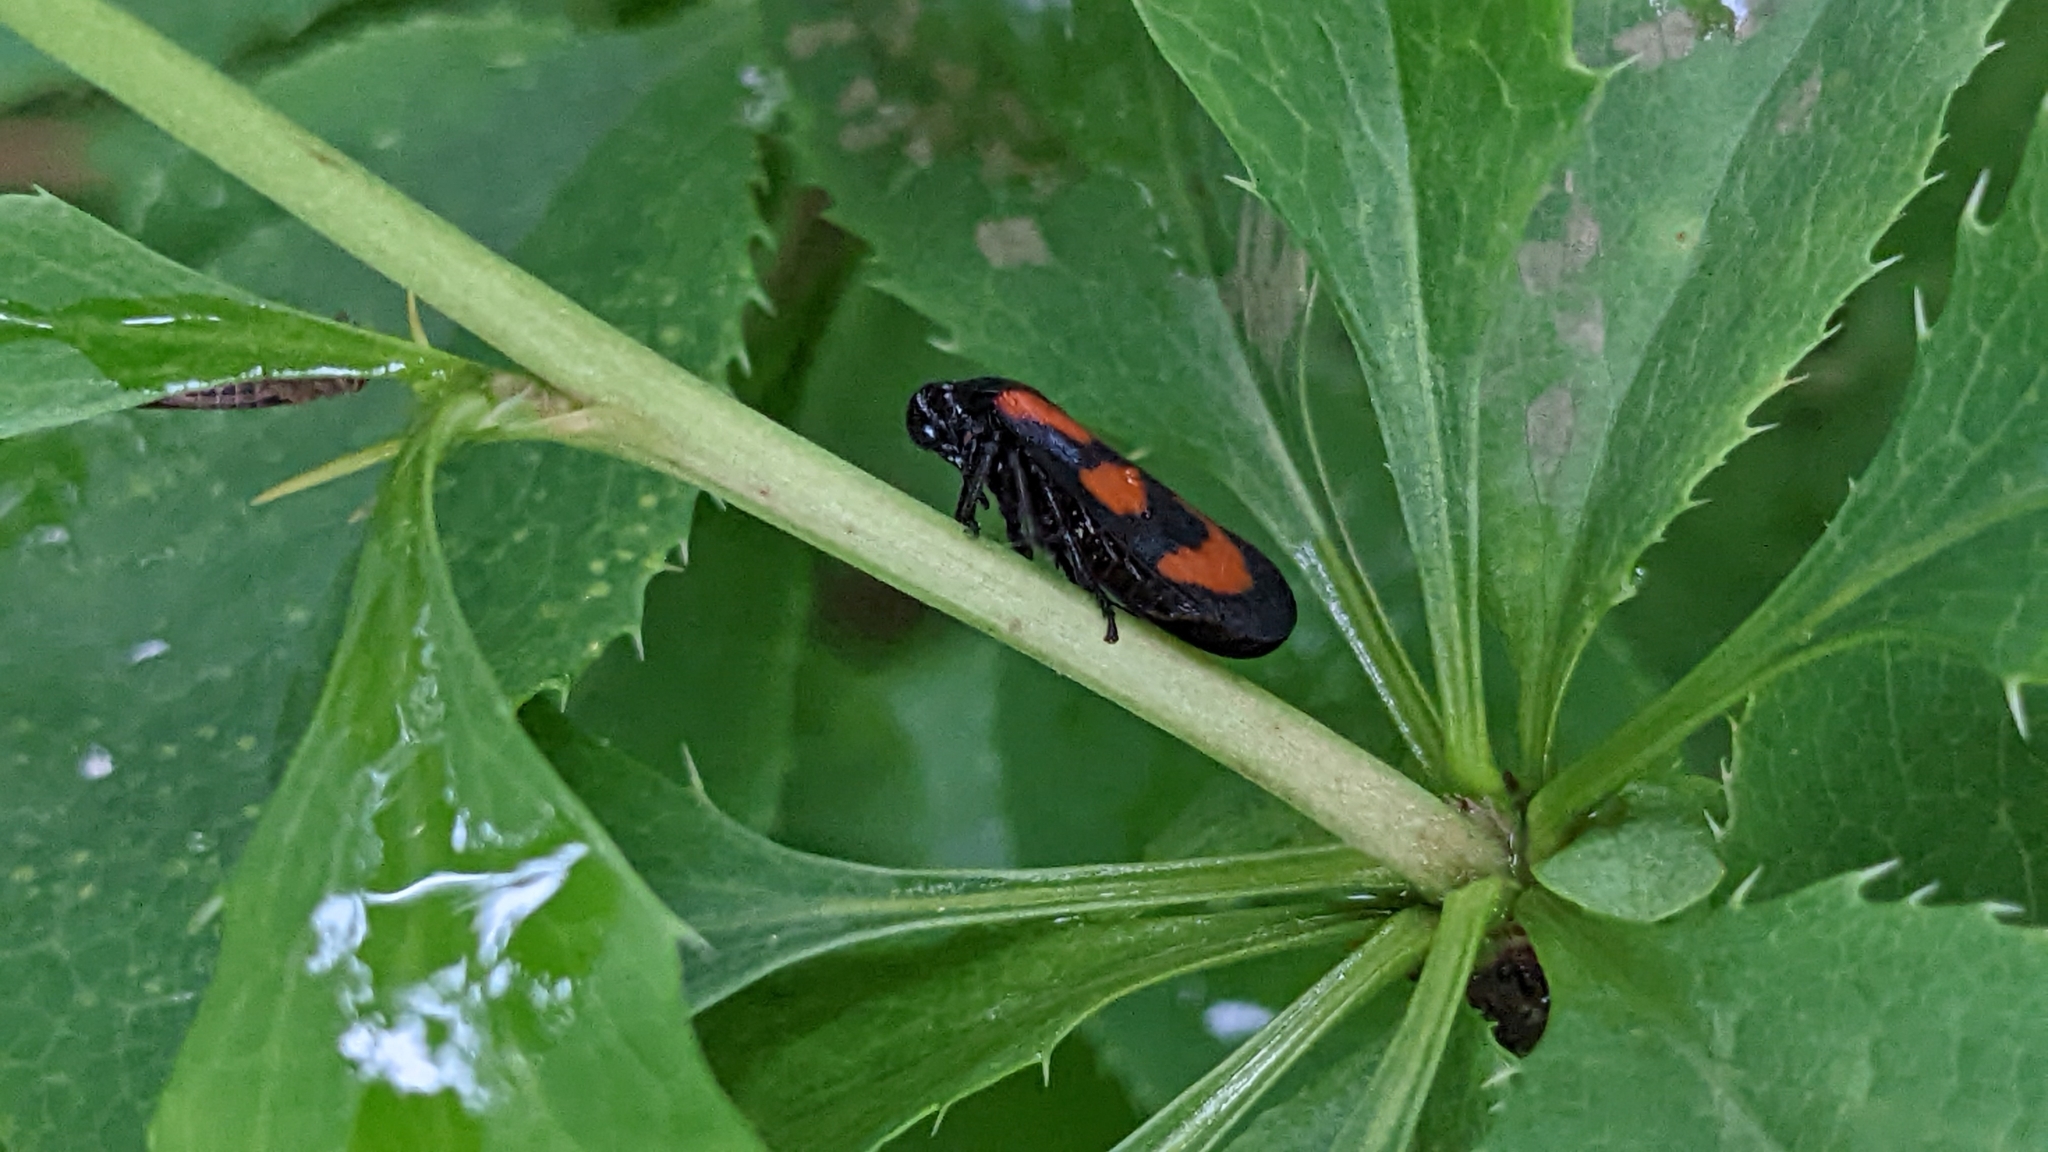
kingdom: Animalia
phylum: Arthropoda
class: Insecta
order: Hemiptera
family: Cercopidae
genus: Cercopis
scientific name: Cercopis vulnerata
